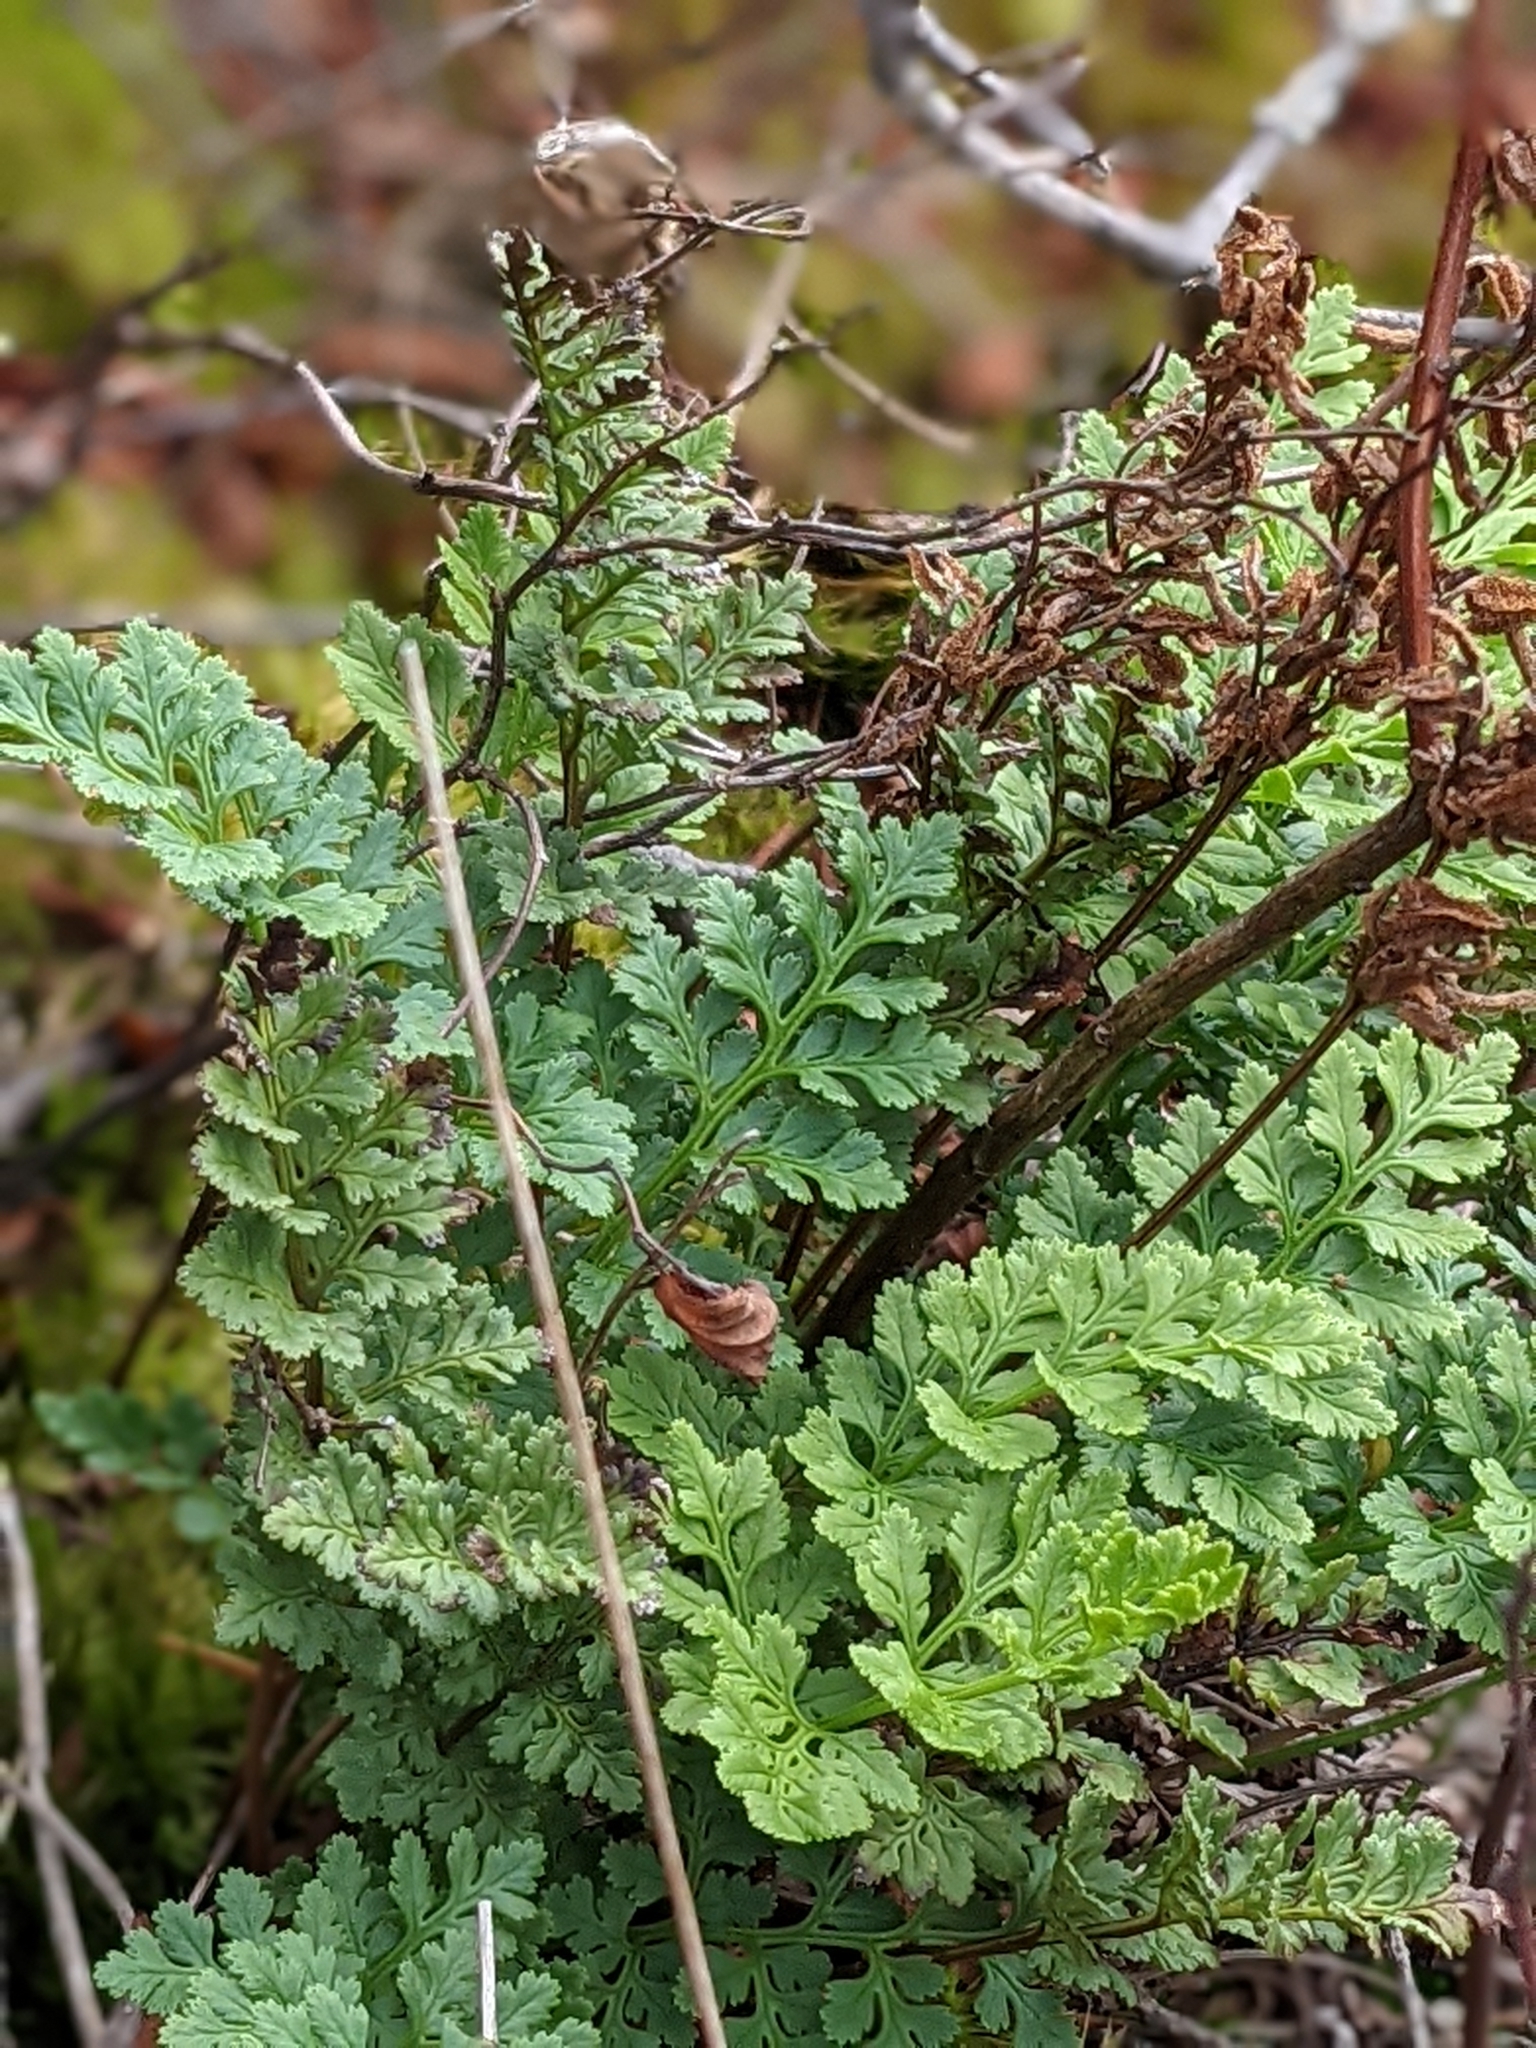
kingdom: Plantae
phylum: Tracheophyta
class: Polypodiopsida
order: Polypodiales
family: Pteridaceae
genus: Cryptogramma
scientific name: Cryptogramma acrostichoides
